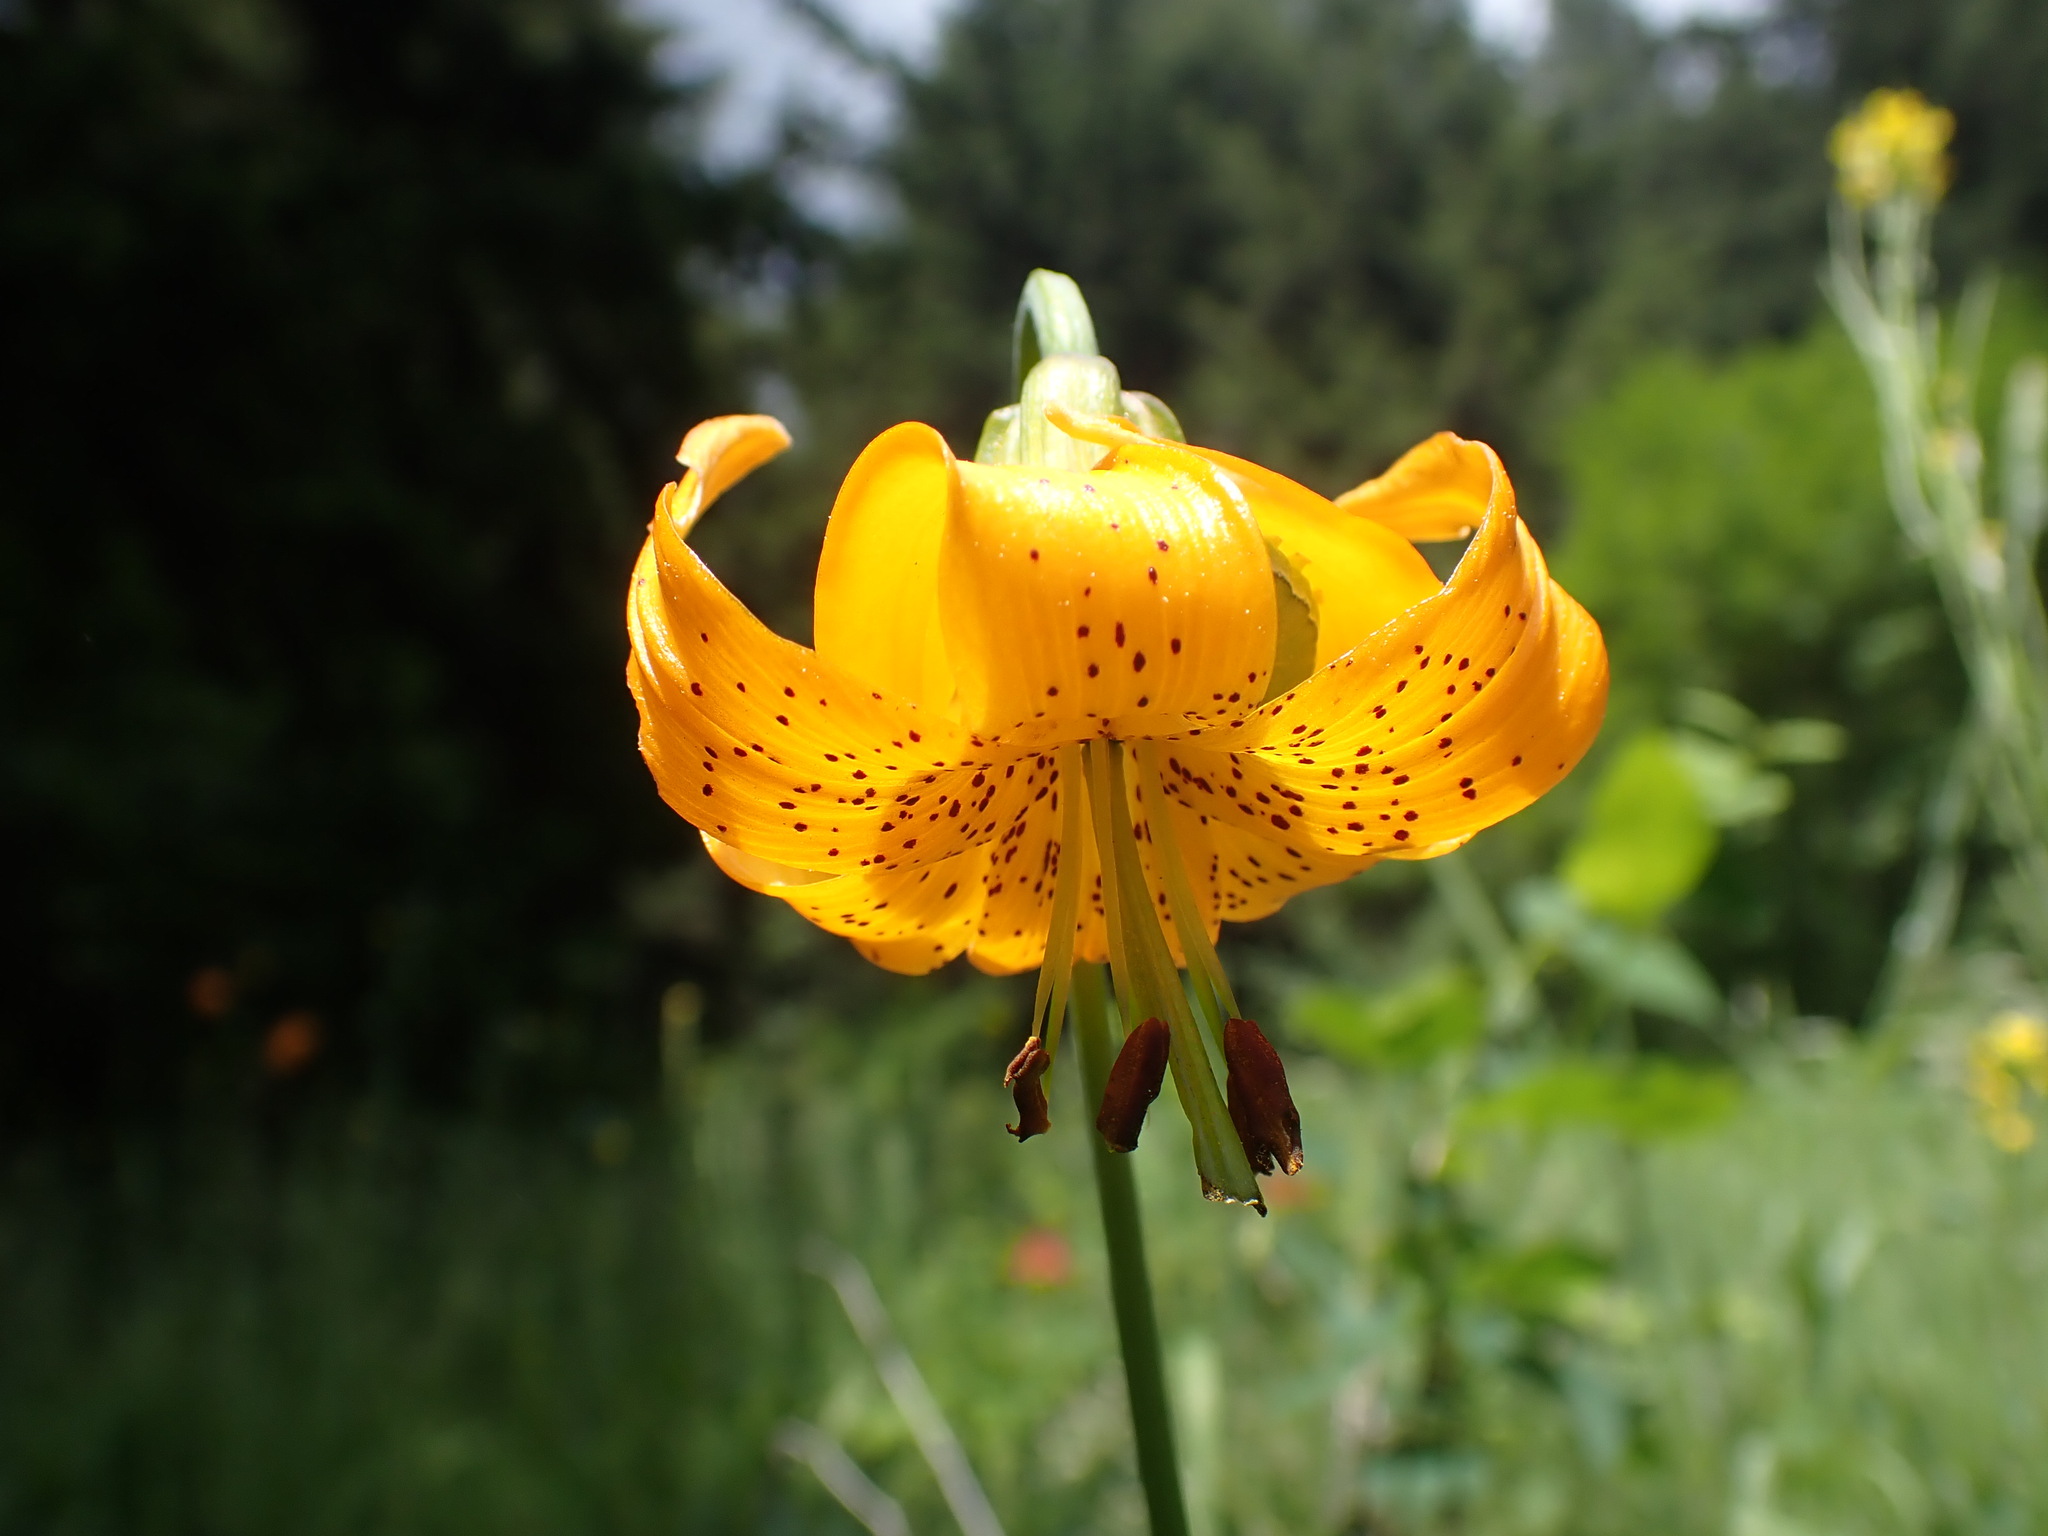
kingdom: Plantae
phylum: Tracheophyta
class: Liliopsida
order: Liliales
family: Liliaceae
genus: Lilium
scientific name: Lilium columbianum
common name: Columbia lily
